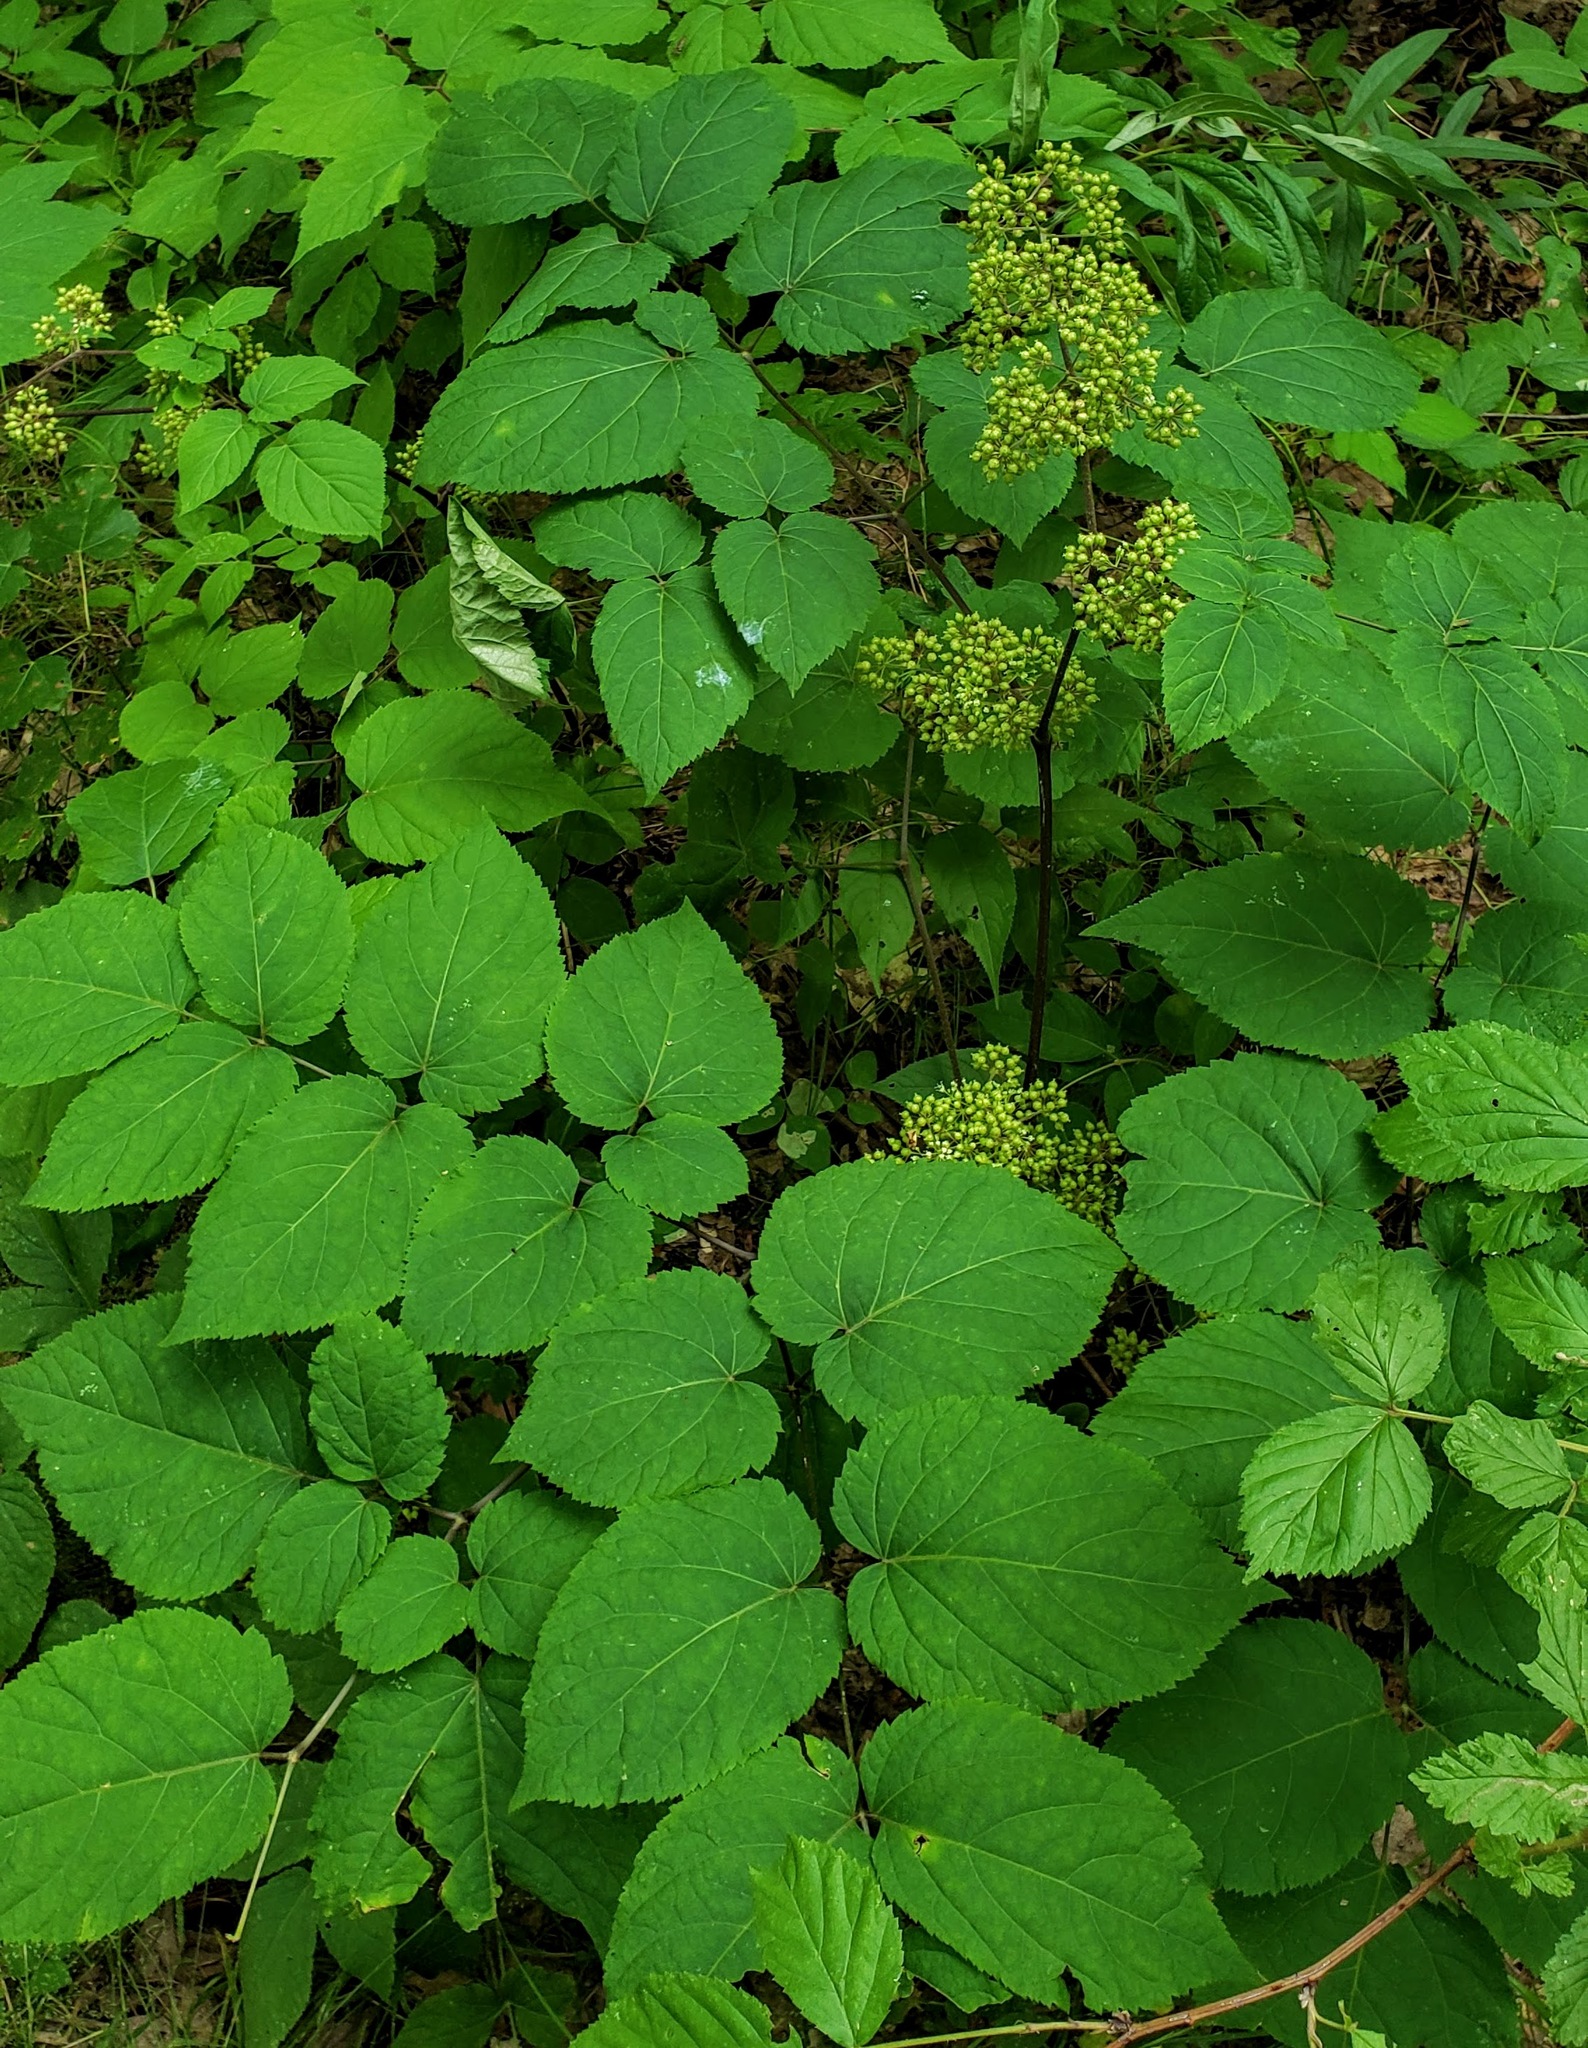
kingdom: Plantae
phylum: Tracheophyta
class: Magnoliopsida
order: Apiales
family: Araliaceae
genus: Aralia
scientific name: Aralia racemosa
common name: American-spikenard
